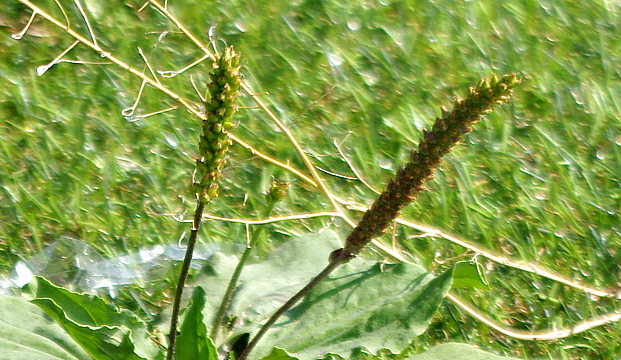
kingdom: Plantae
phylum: Tracheophyta
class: Magnoliopsida
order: Lamiales
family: Plantaginaceae
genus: Plantago
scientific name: Plantago major
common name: Common plantain
